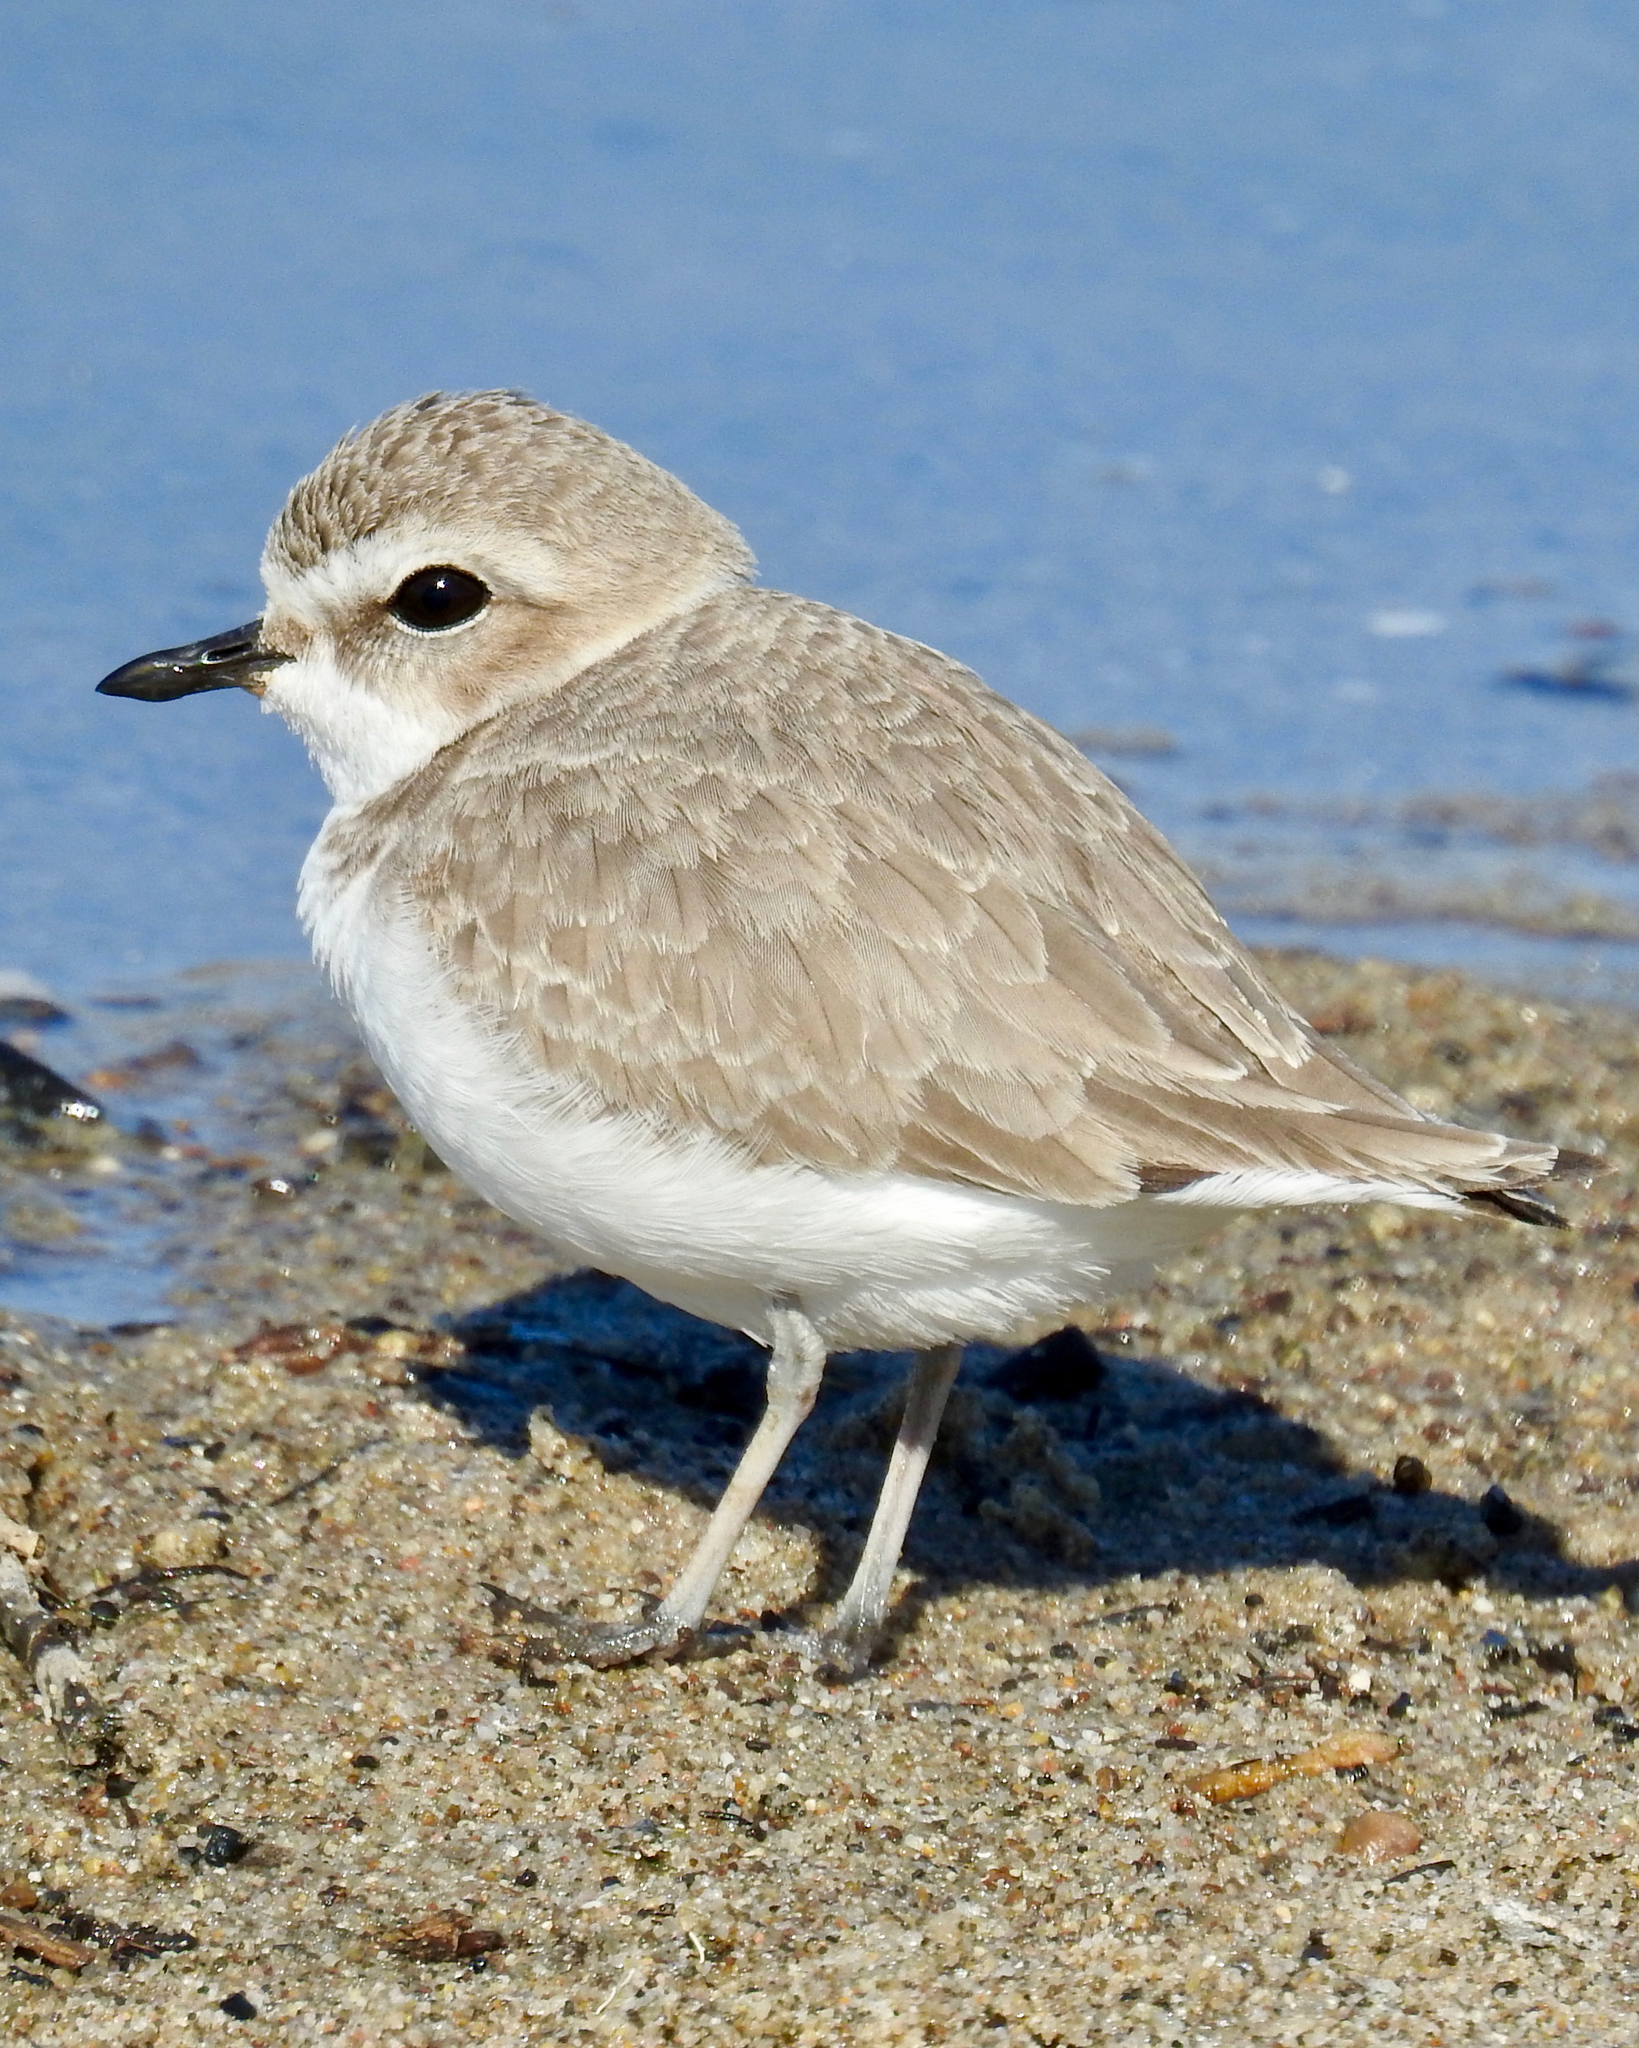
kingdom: Animalia
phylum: Chordata
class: Aves
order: Charadriiformes
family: Charadriidae
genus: Anarhynchus
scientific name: Anarhynchus
